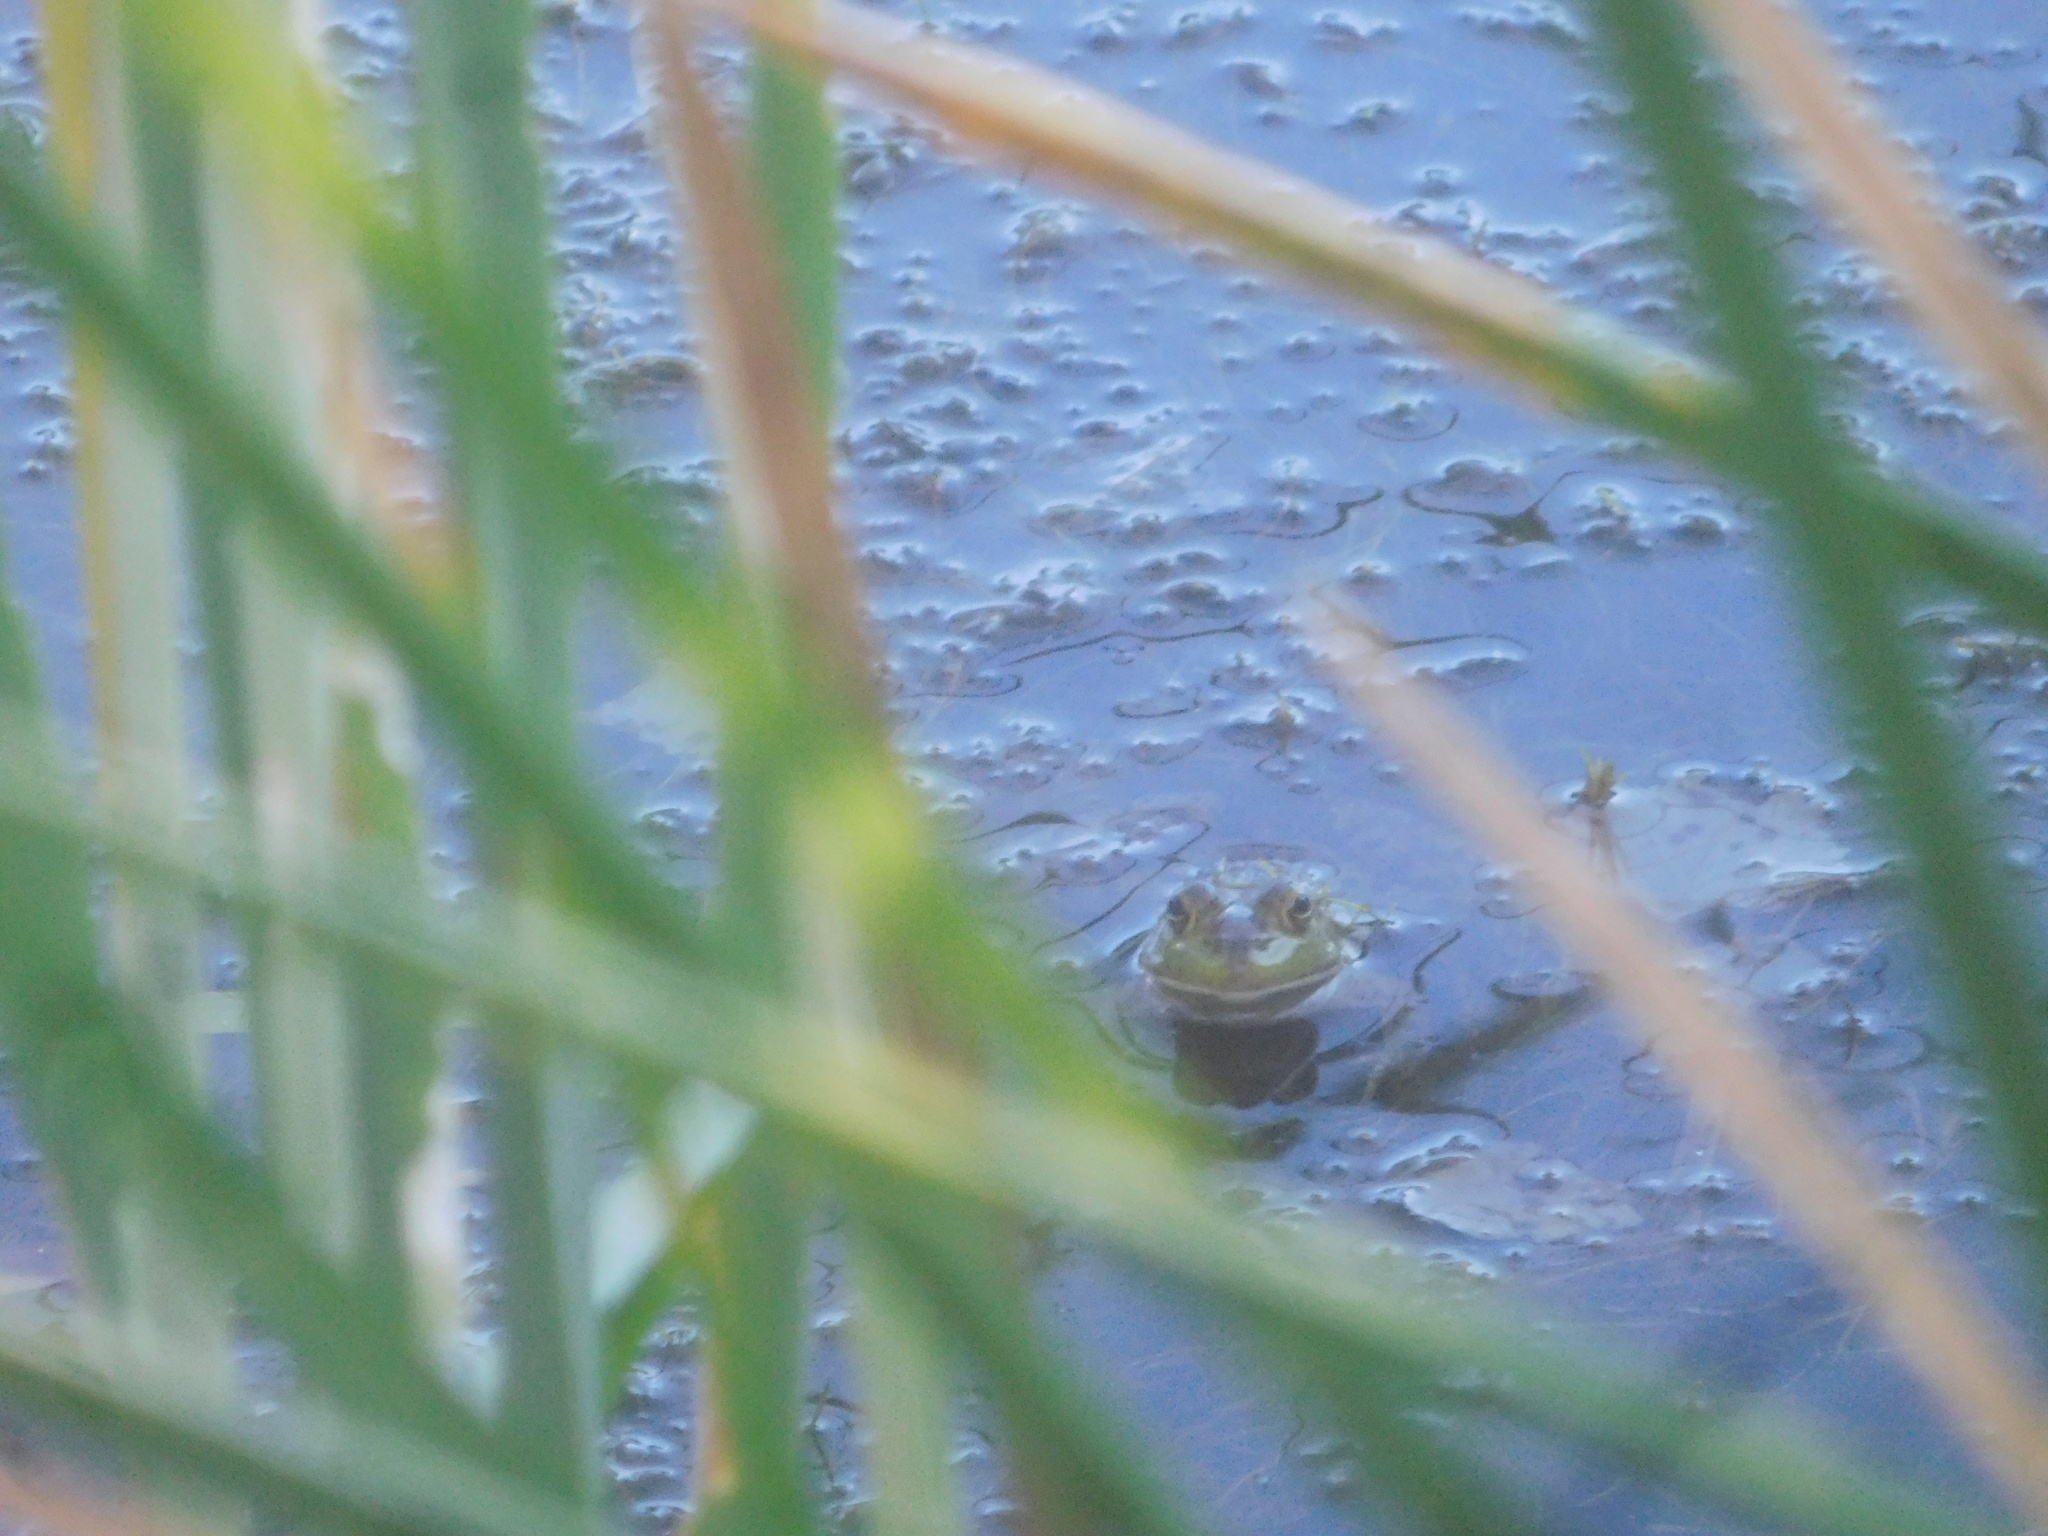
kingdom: Animalia
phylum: Chordata
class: Amphibia
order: Anura
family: Ranidae
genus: Lithobates
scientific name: Lithobates catesbeianus
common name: American bullfrog
